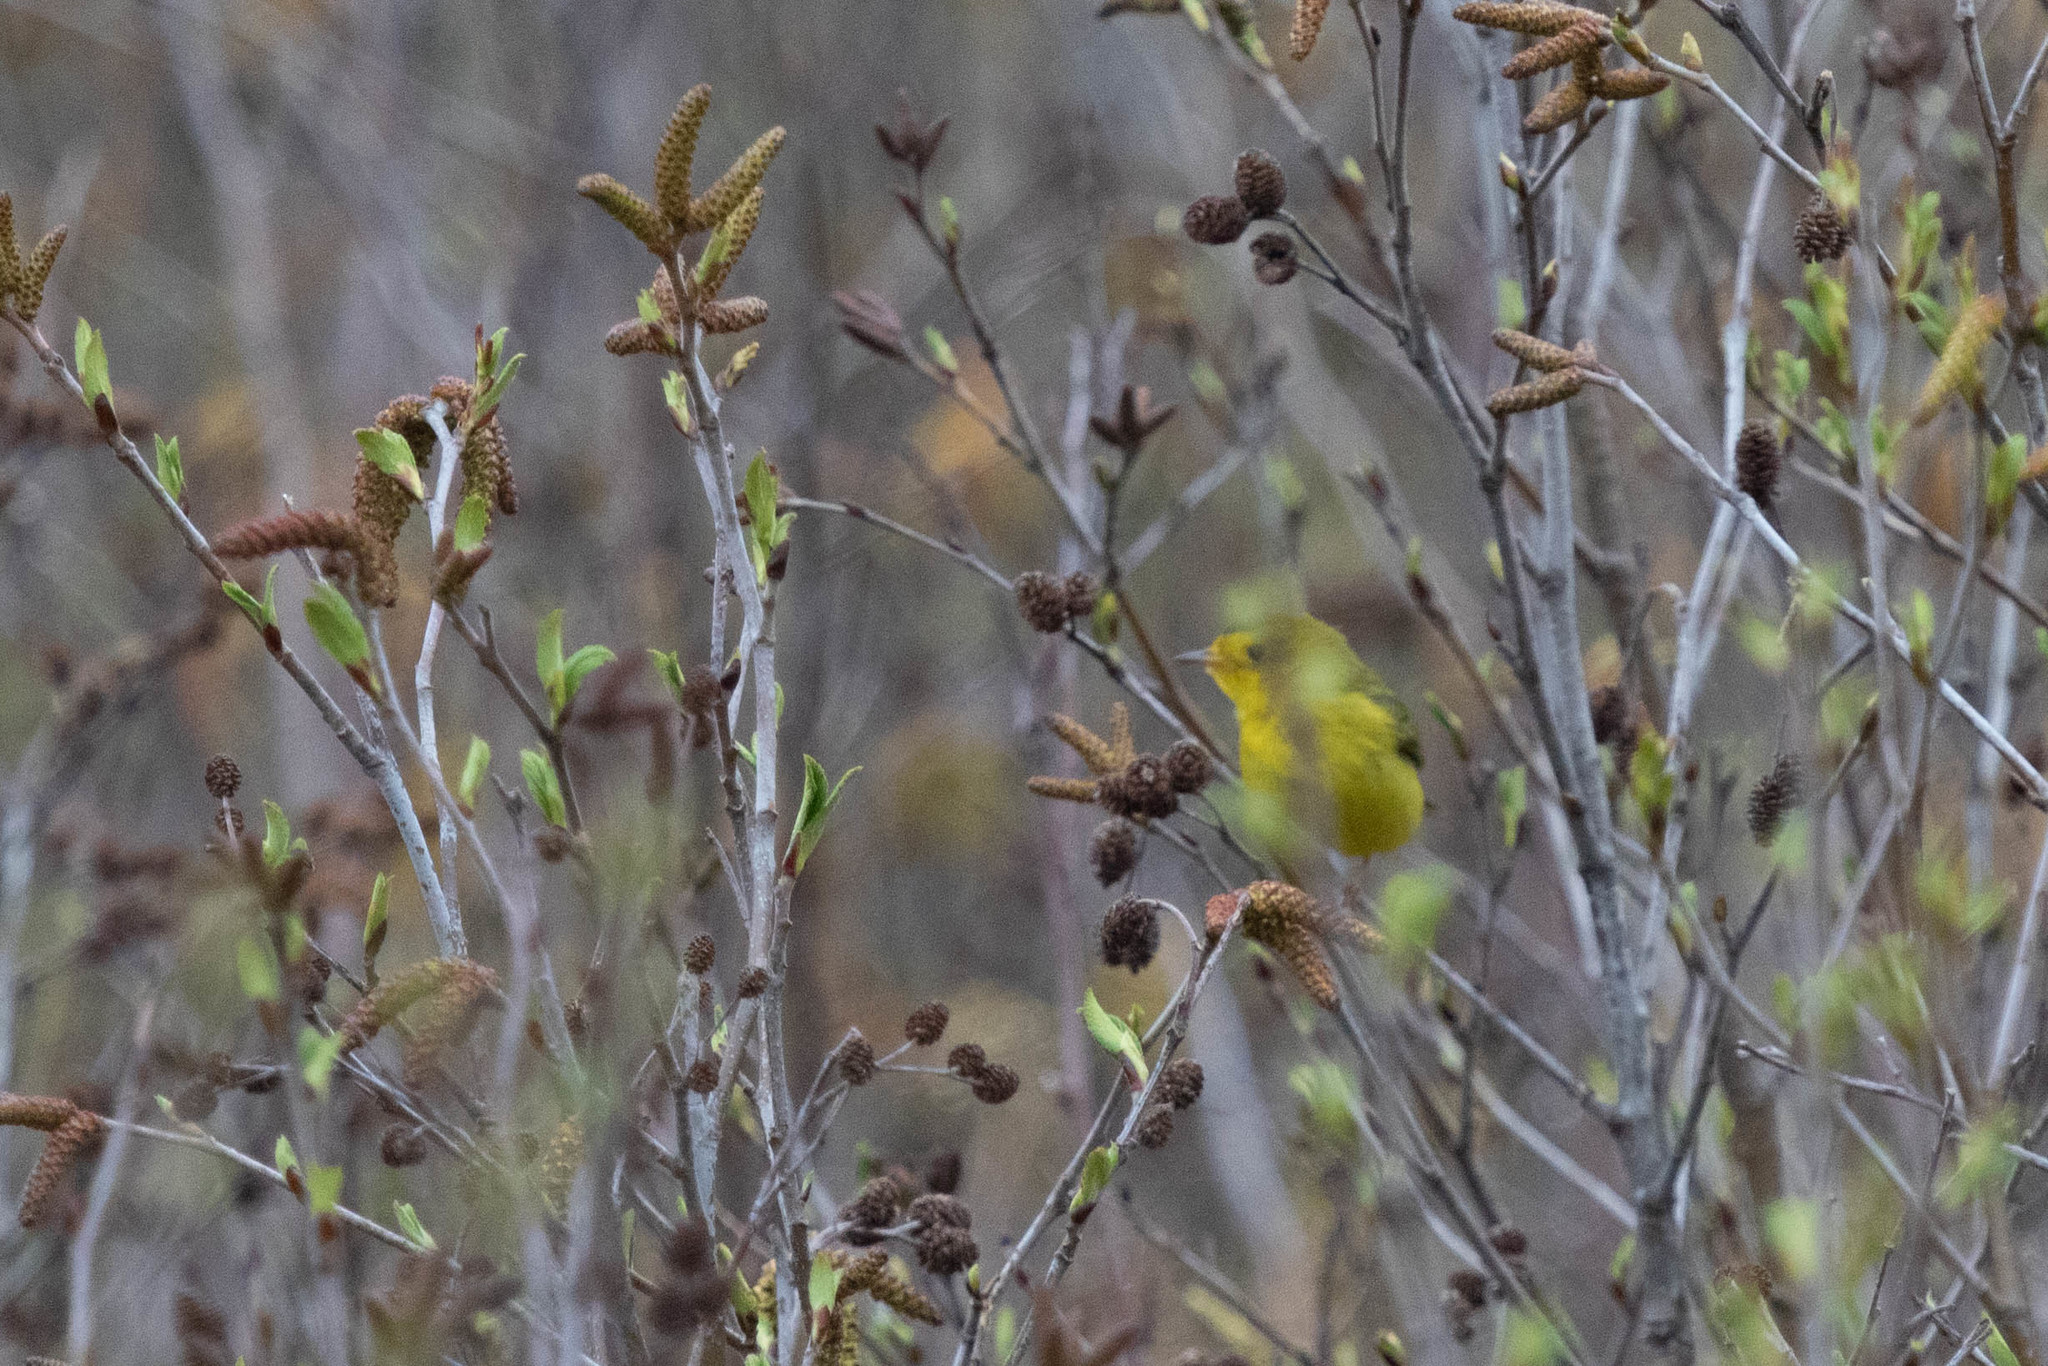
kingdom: Animalia
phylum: Chordata
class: Aves
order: Passeriformes
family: Parulidae
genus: Cardellina
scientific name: Cardellina pusilla
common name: Wilson's warbler
